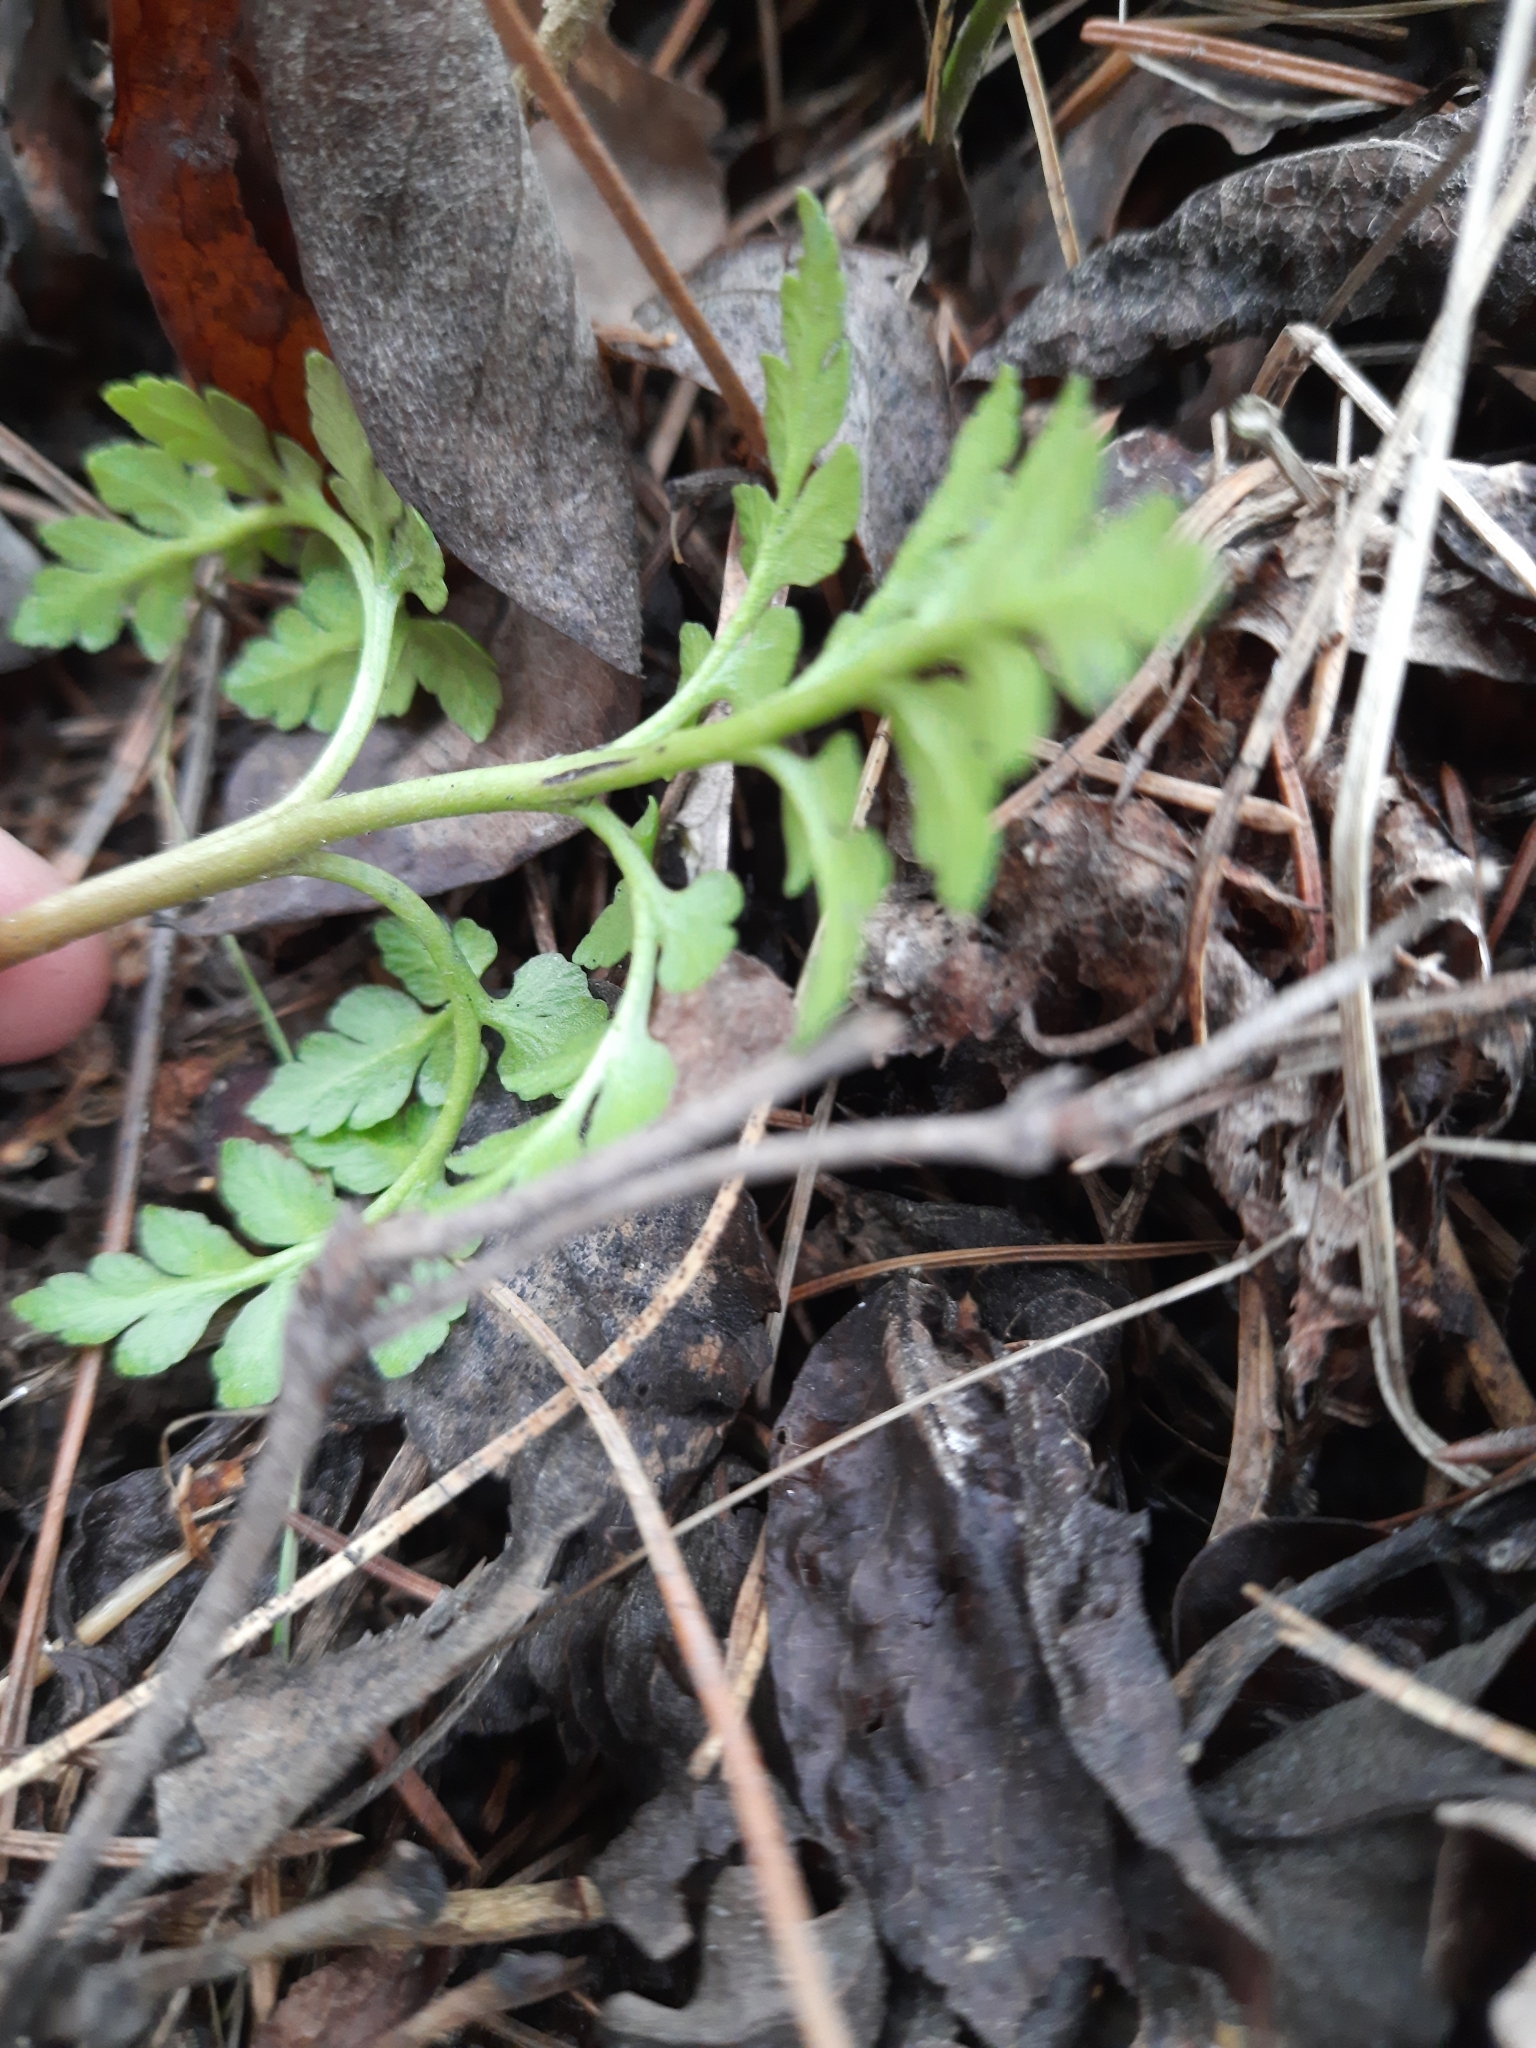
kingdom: Plantae
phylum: Tracheophyta
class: Polypodiopsida
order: Ophioglossales
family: Ophioglossaceae
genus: Sceptridium
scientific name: Sceptridium multifidum
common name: Leathery grape fern
